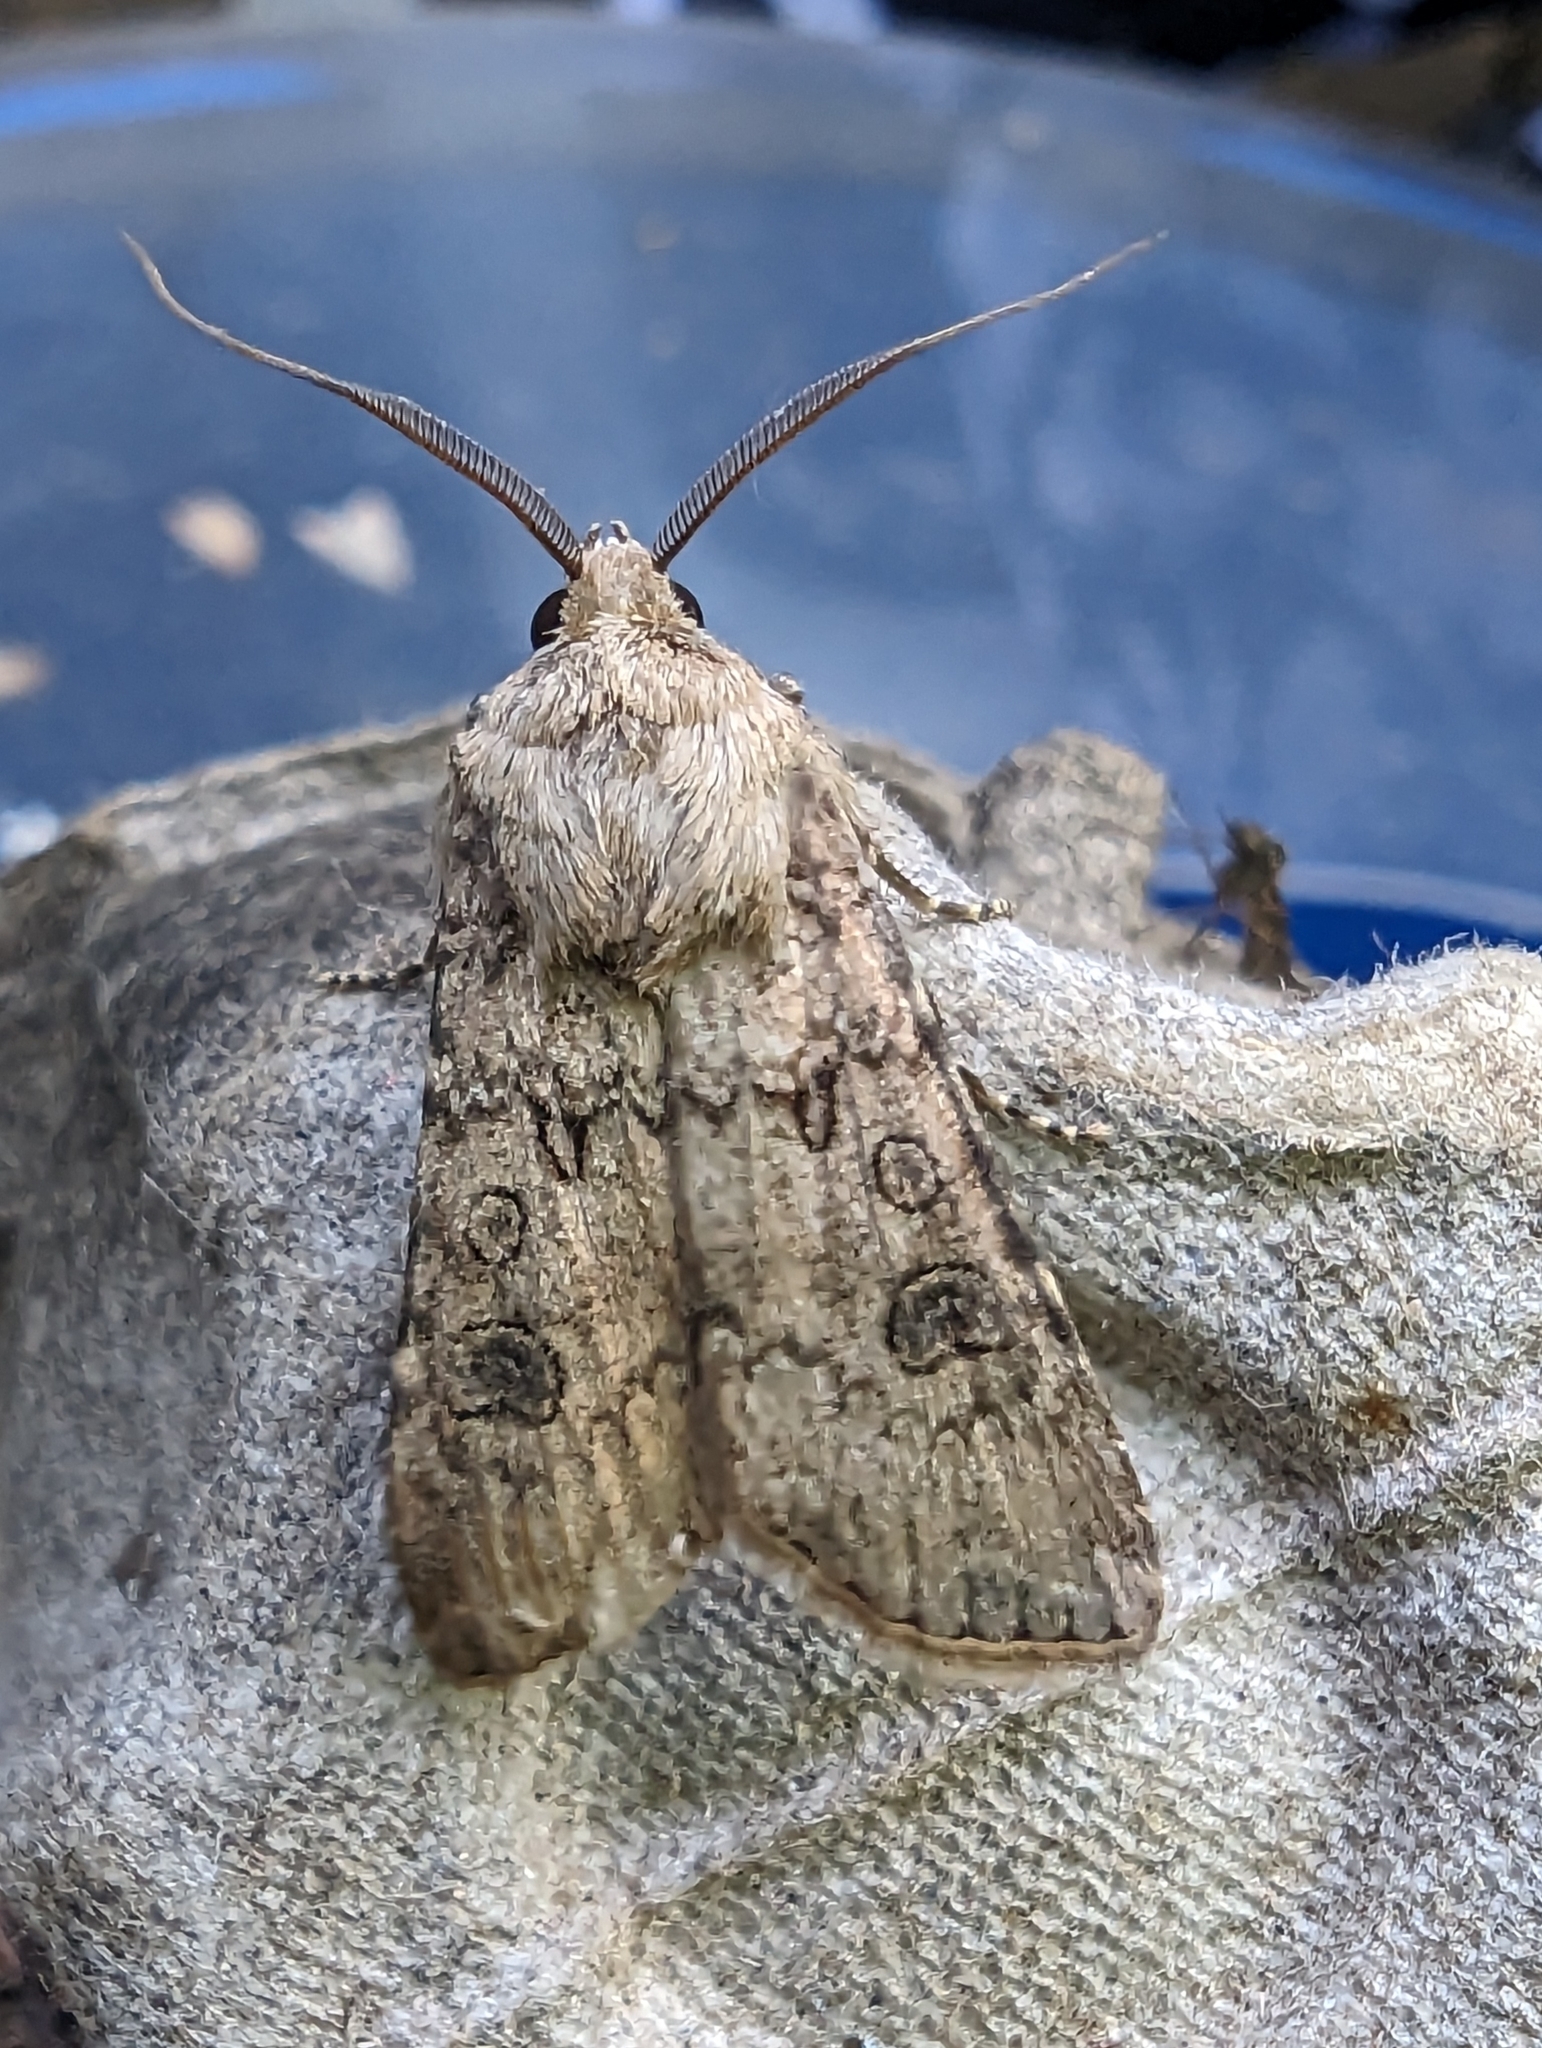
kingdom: Animalia
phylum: Arthropoda
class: Insecta
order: Lepidoptera
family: Noctuidae
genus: Agrotis
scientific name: Agrotis segetum
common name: Turnip moth
